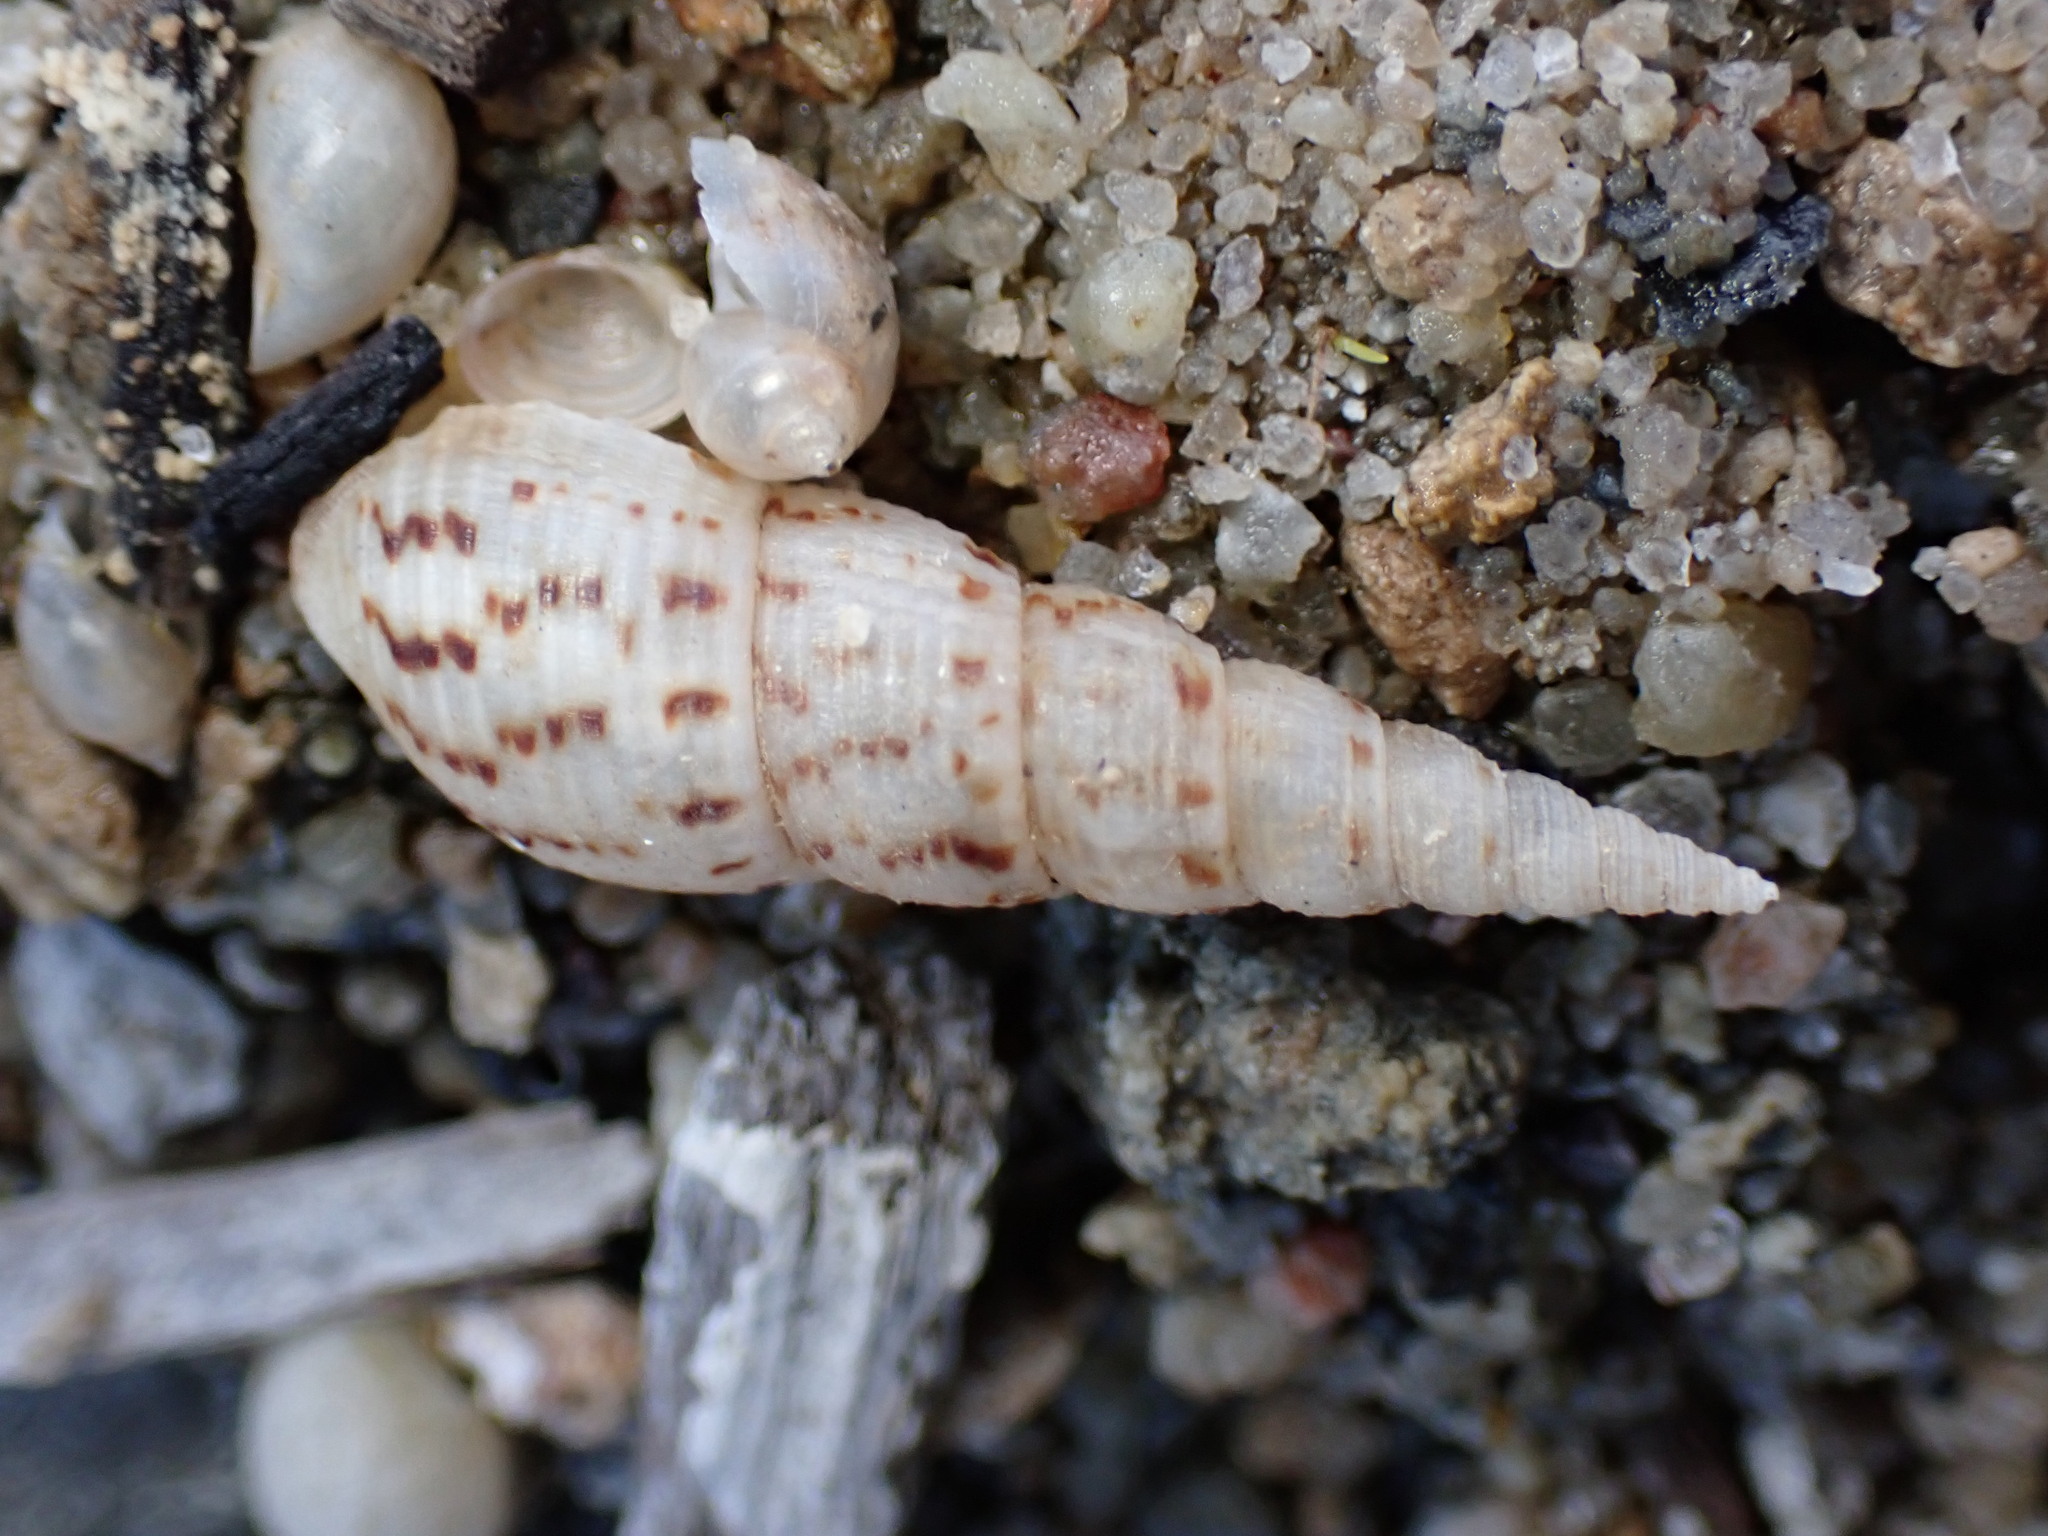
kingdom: Animalia
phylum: Mollusca
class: Gastropoda
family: Thiaridae
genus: Melanoides
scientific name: Melanoides tuberculata
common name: Red-rim melania
